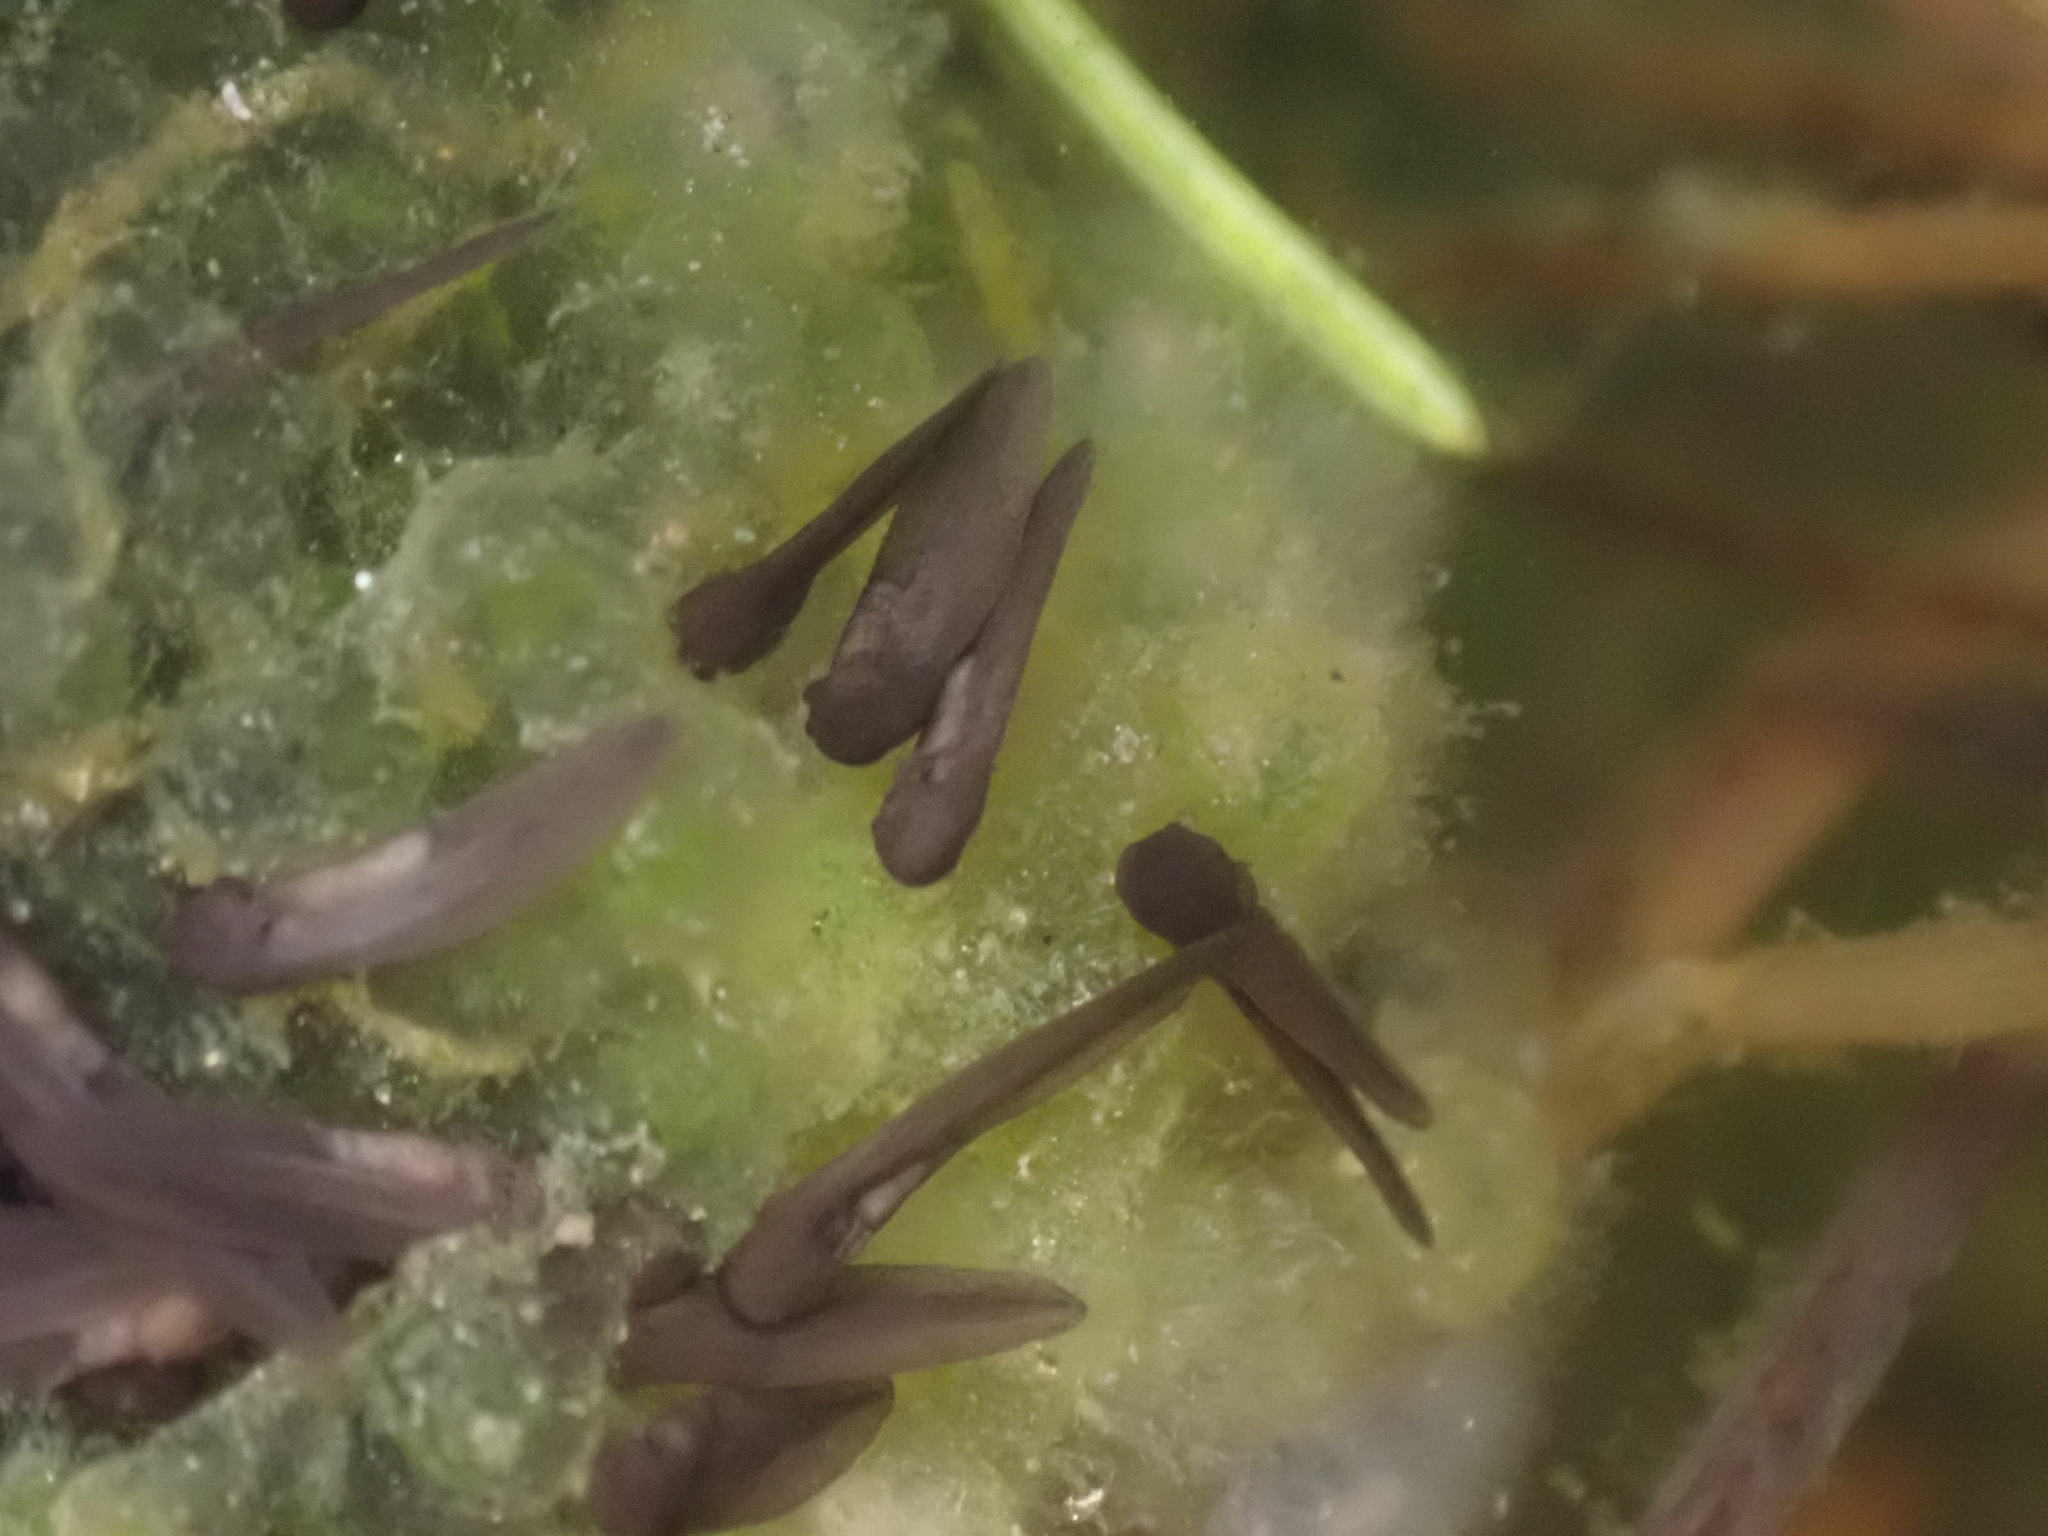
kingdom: Animalia
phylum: Chordata
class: Amphibia
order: Anura
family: Ranidae
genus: Lithobates
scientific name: Lithobates sylvaticus
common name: Wood frog
